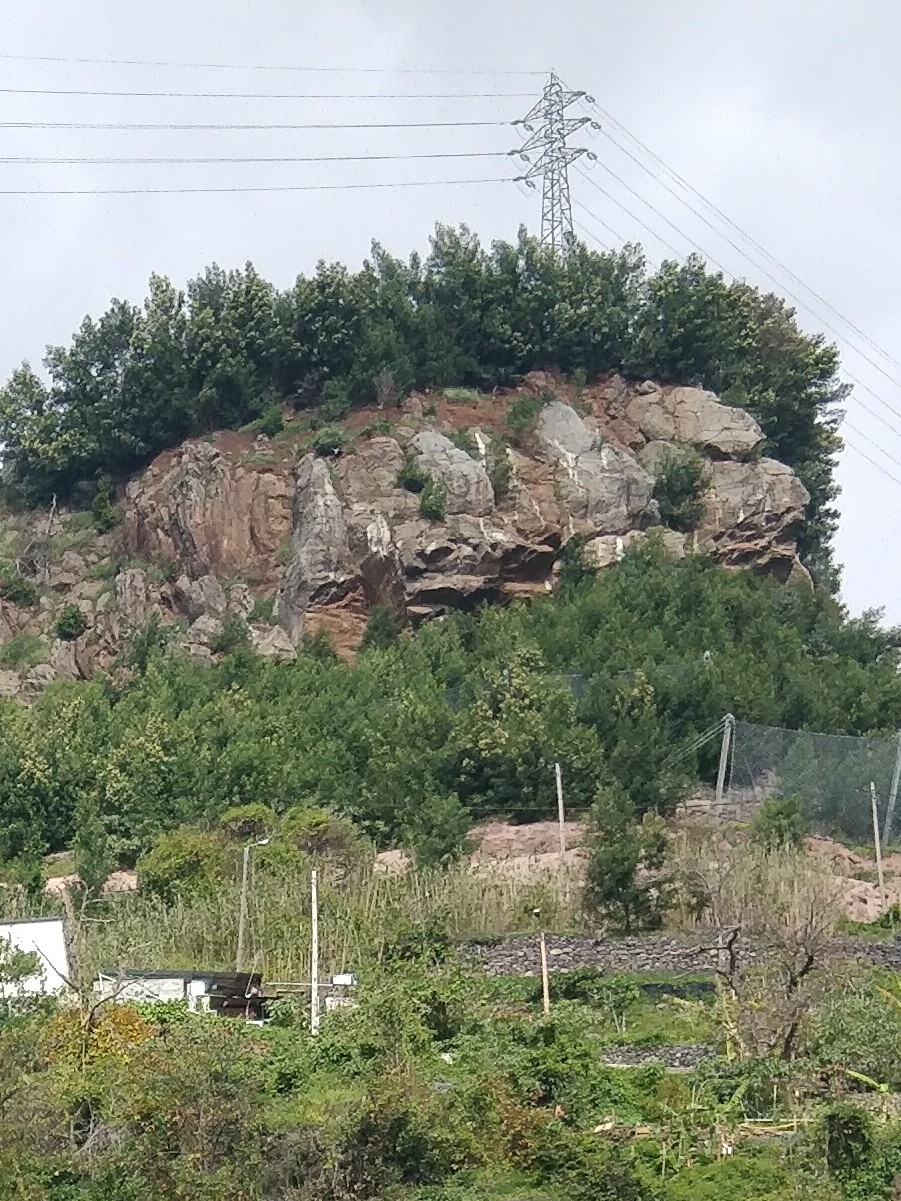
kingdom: Plantae
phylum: Tracheophyta
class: Magnoliopsida
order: Fabales
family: Fabaceae
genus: Acacia
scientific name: Acacia mearnsii
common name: Black wattle
